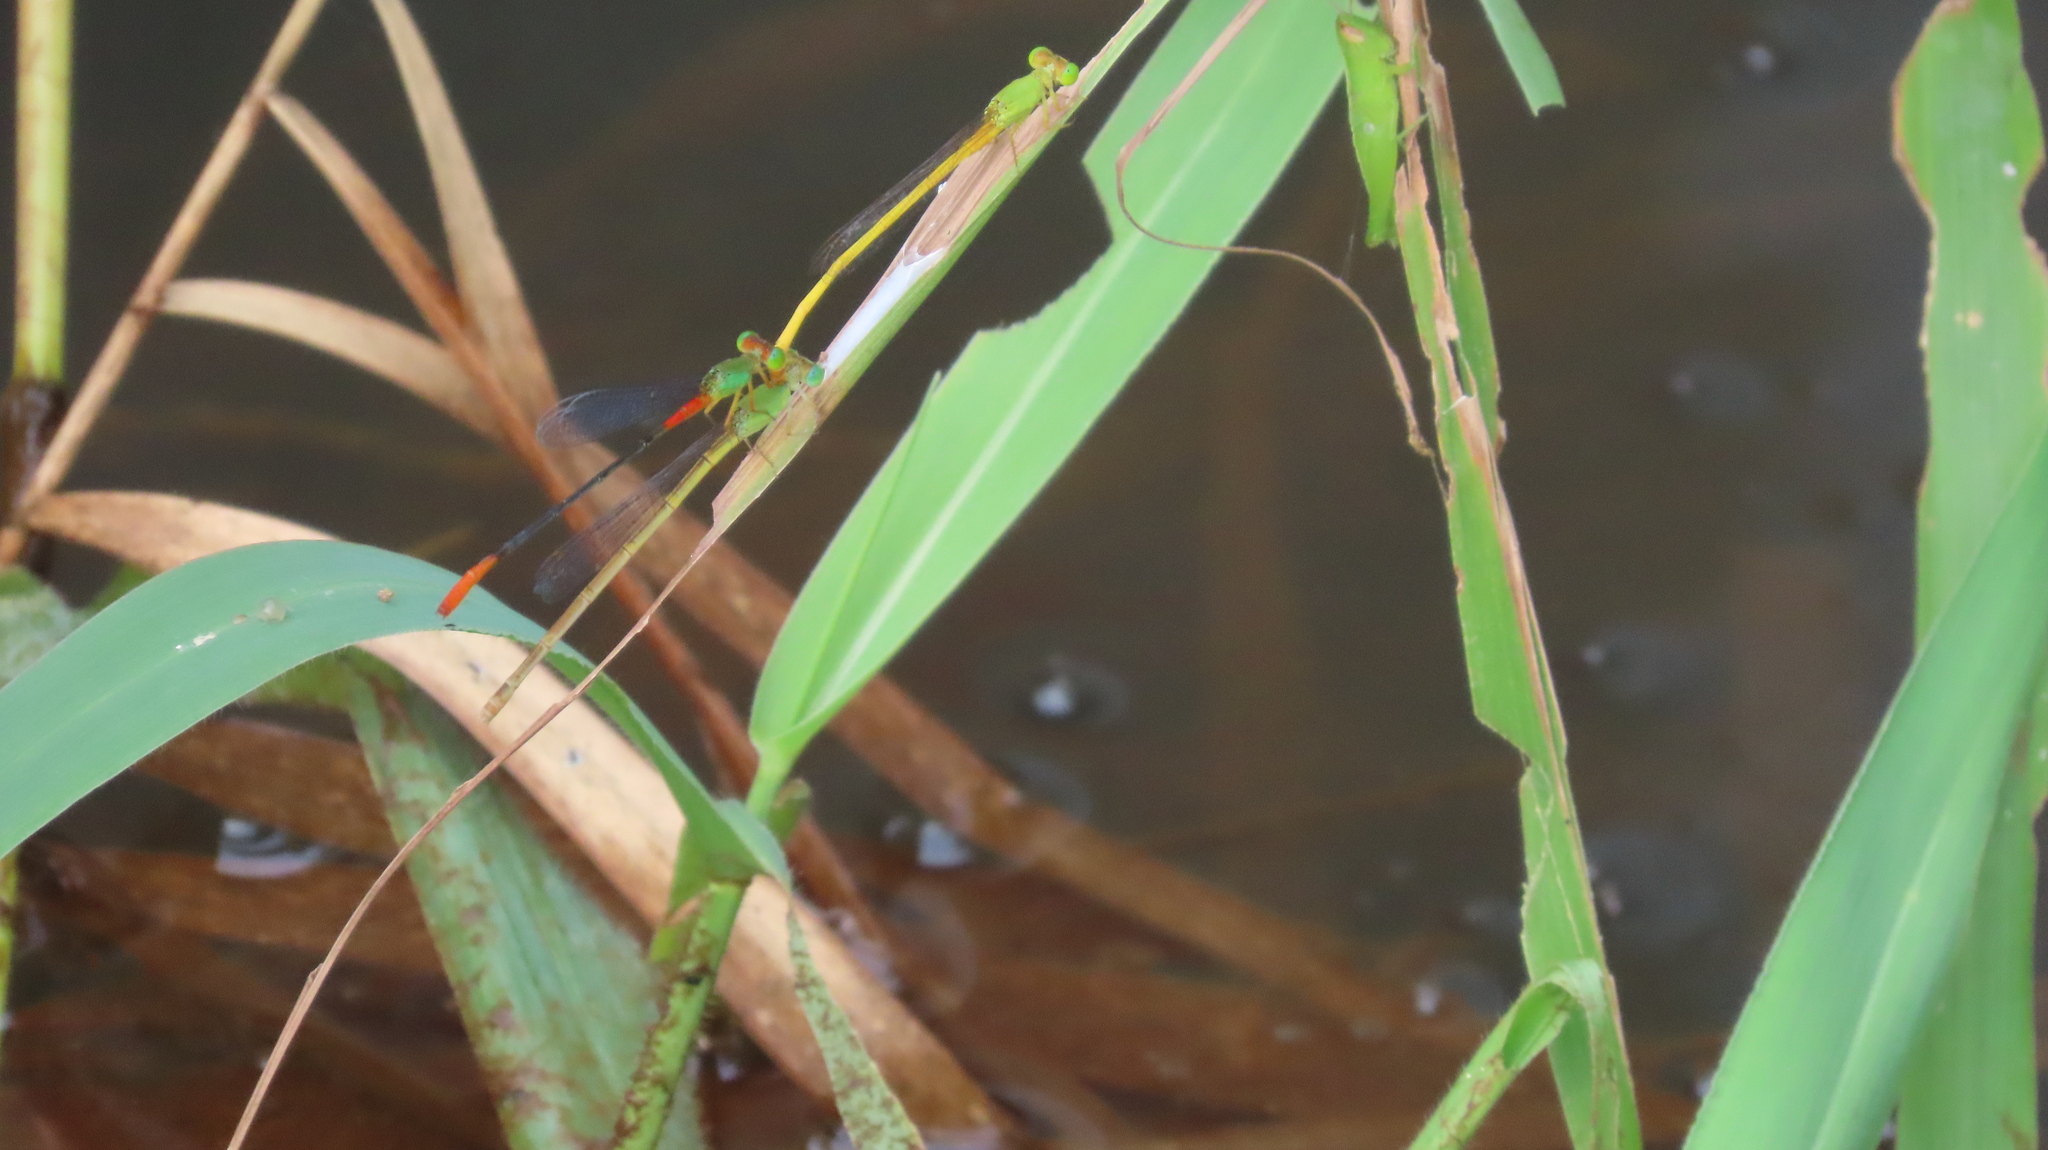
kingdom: Animalia
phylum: Arthropoda
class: Insecta
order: Odonata
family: Coenagrionidae
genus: Ceriagrion
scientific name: Ceriagrion cerinorubellum
